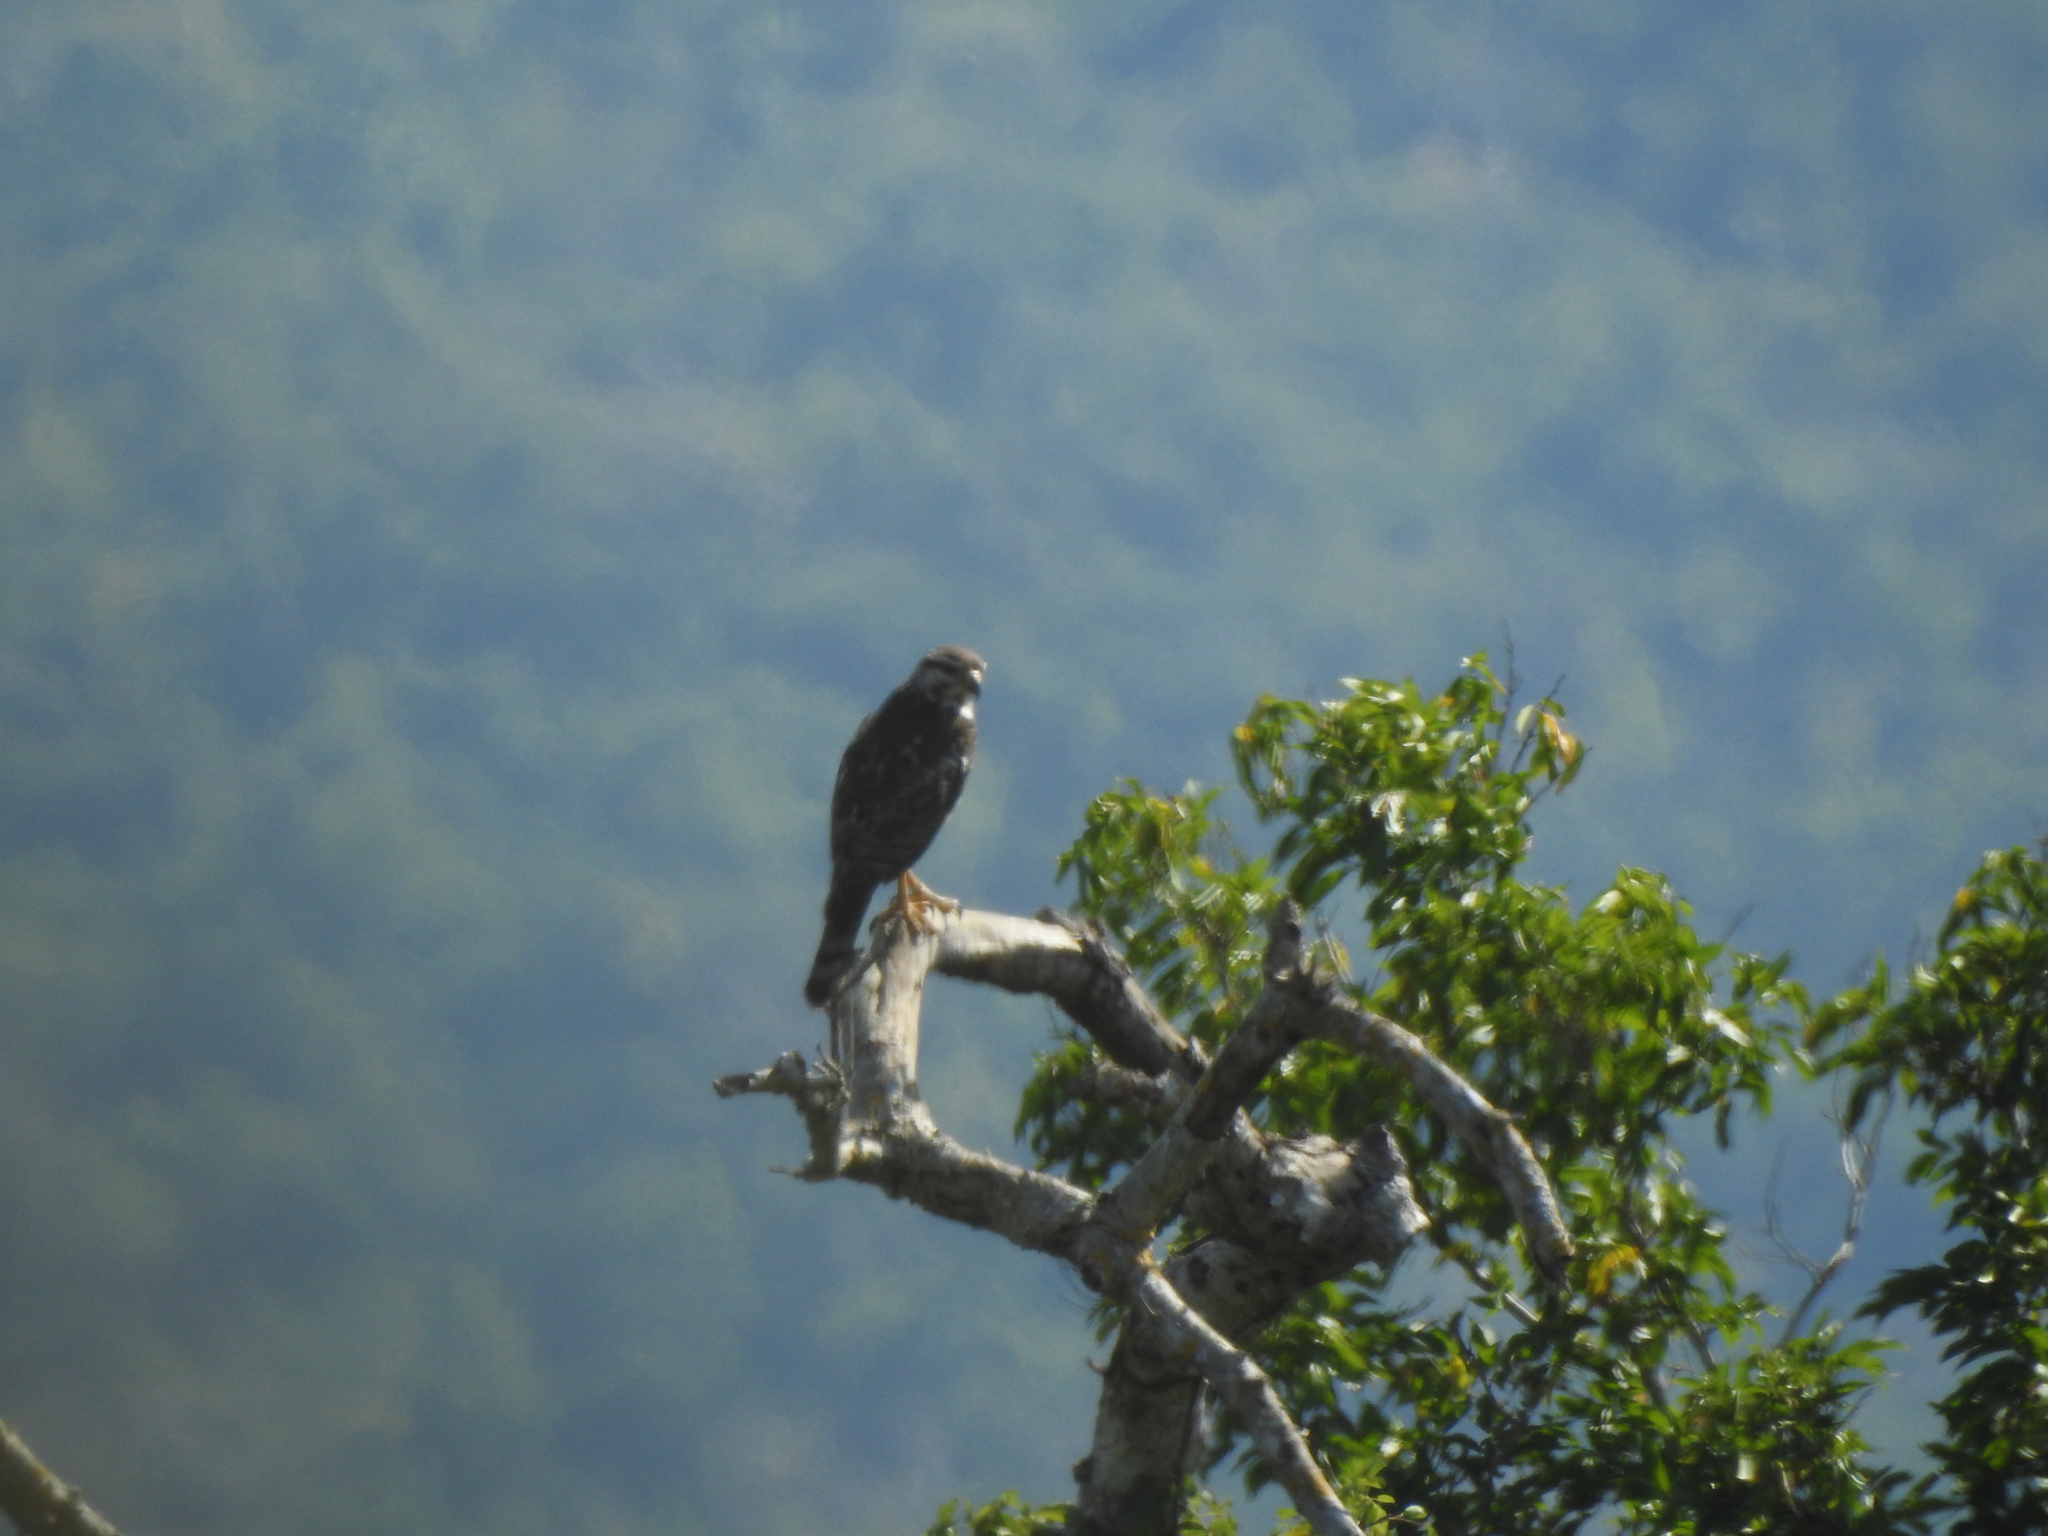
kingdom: Animalia
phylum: Chordata
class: Aves
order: Accipitriformes
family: Accipitridae
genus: Buteo
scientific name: Buteo nitidus
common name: Grey-lined hawk
